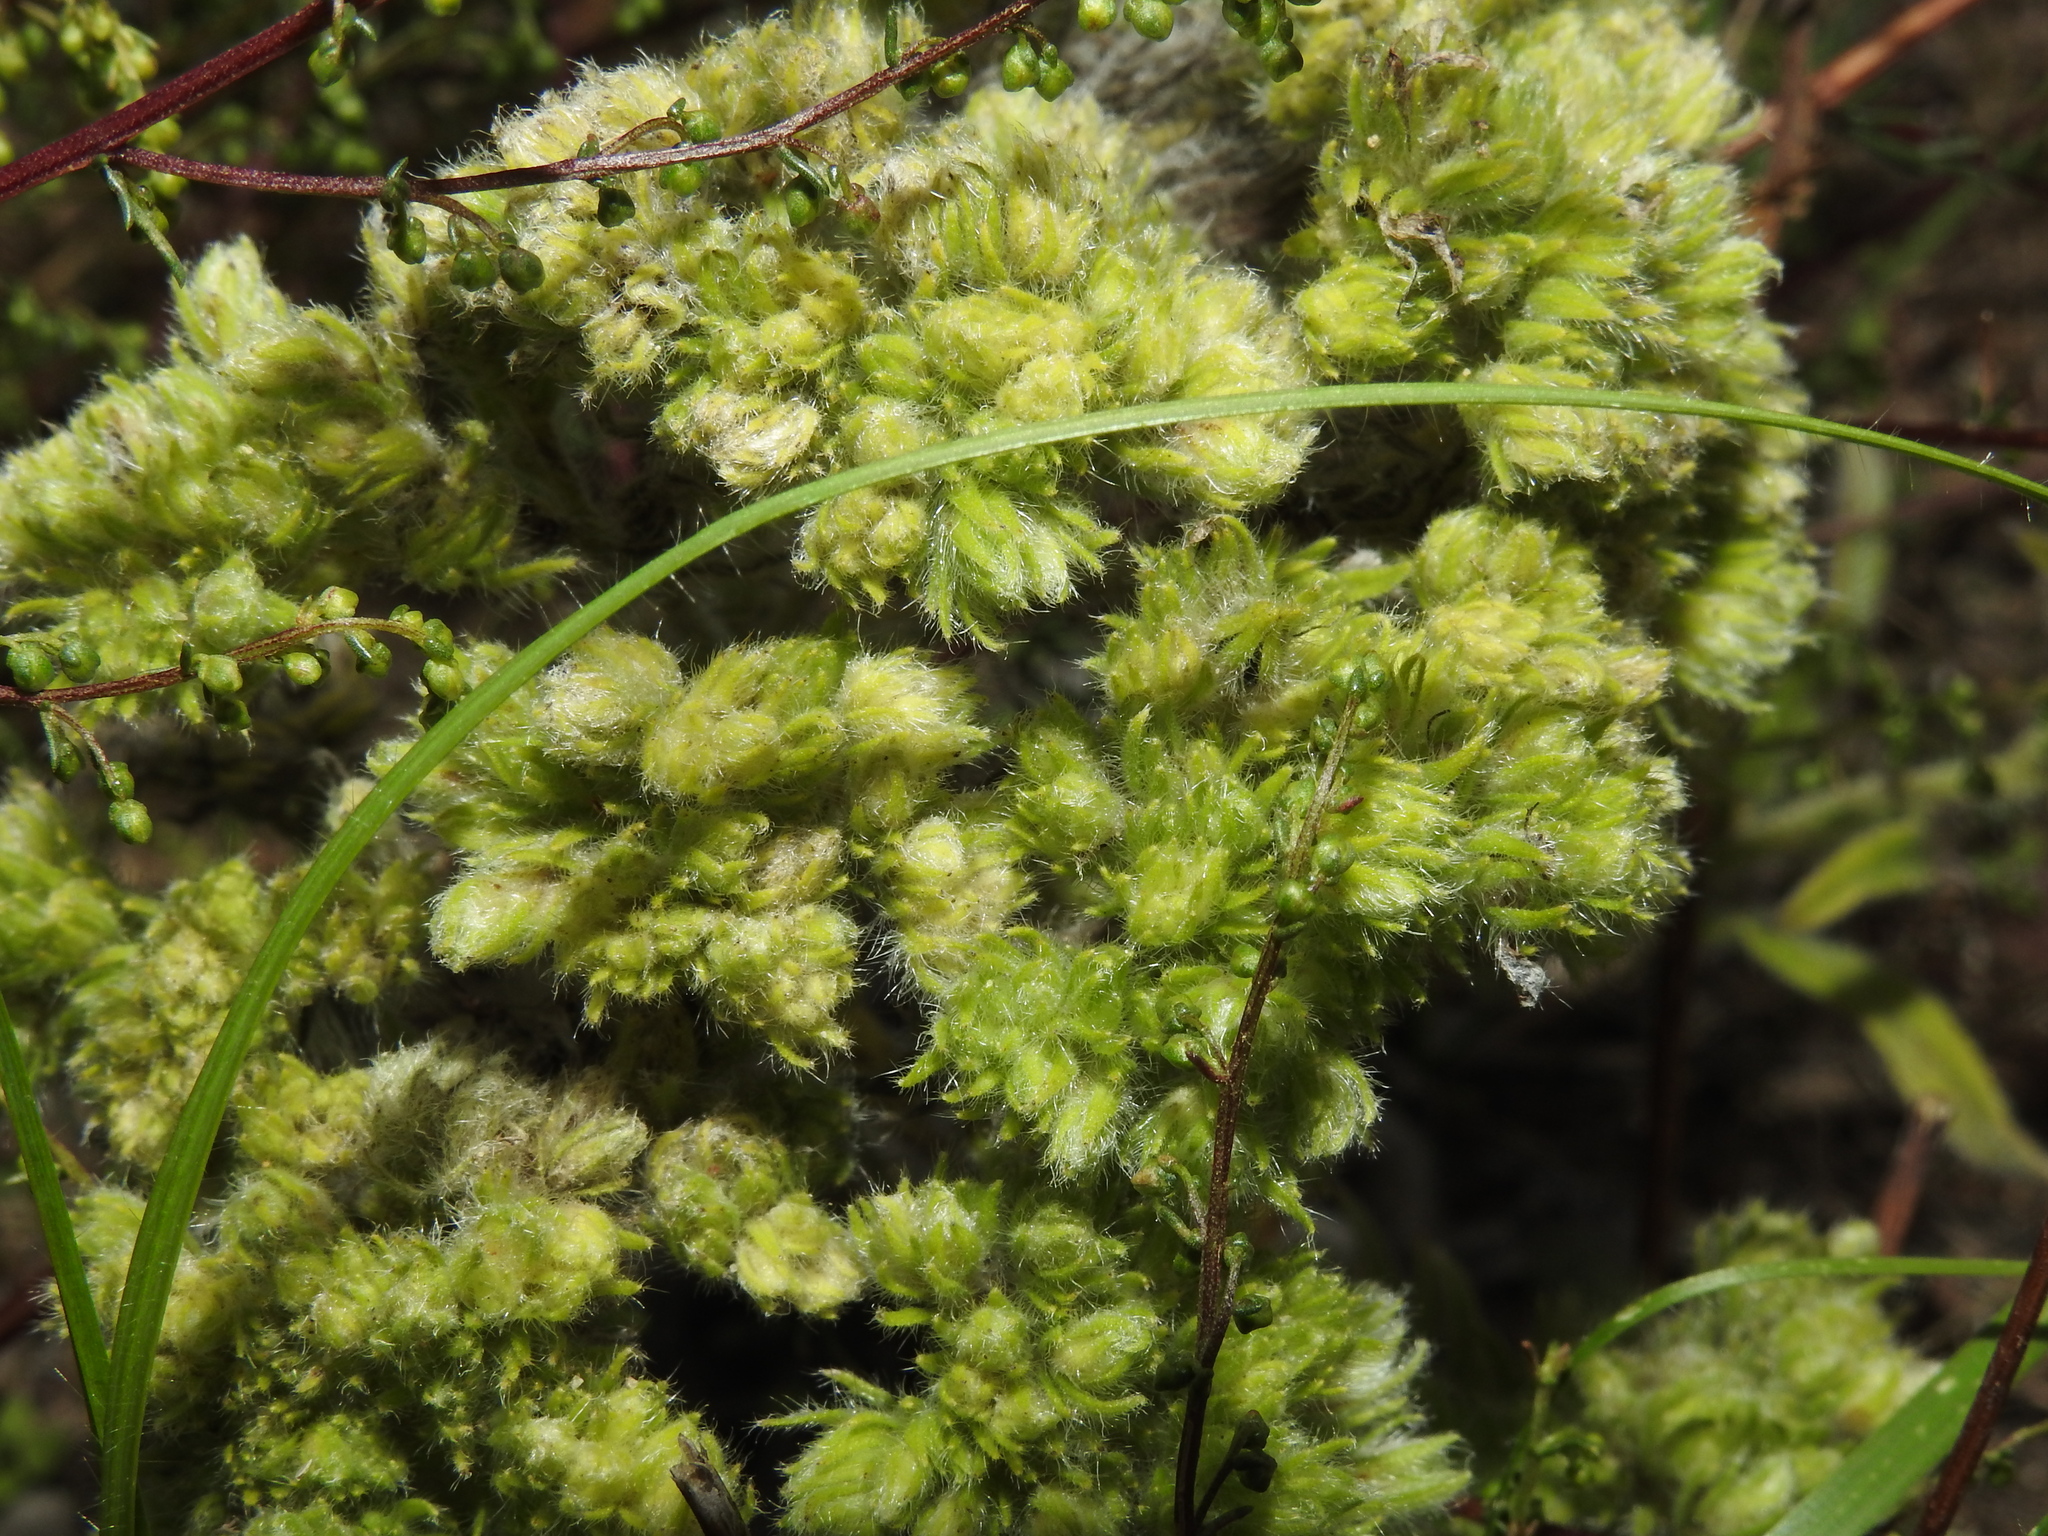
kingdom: Animalia
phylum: Arthropoda
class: Arachnida
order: Trombidiformes
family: Eriophyidae
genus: Aceria
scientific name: Aceria echii
